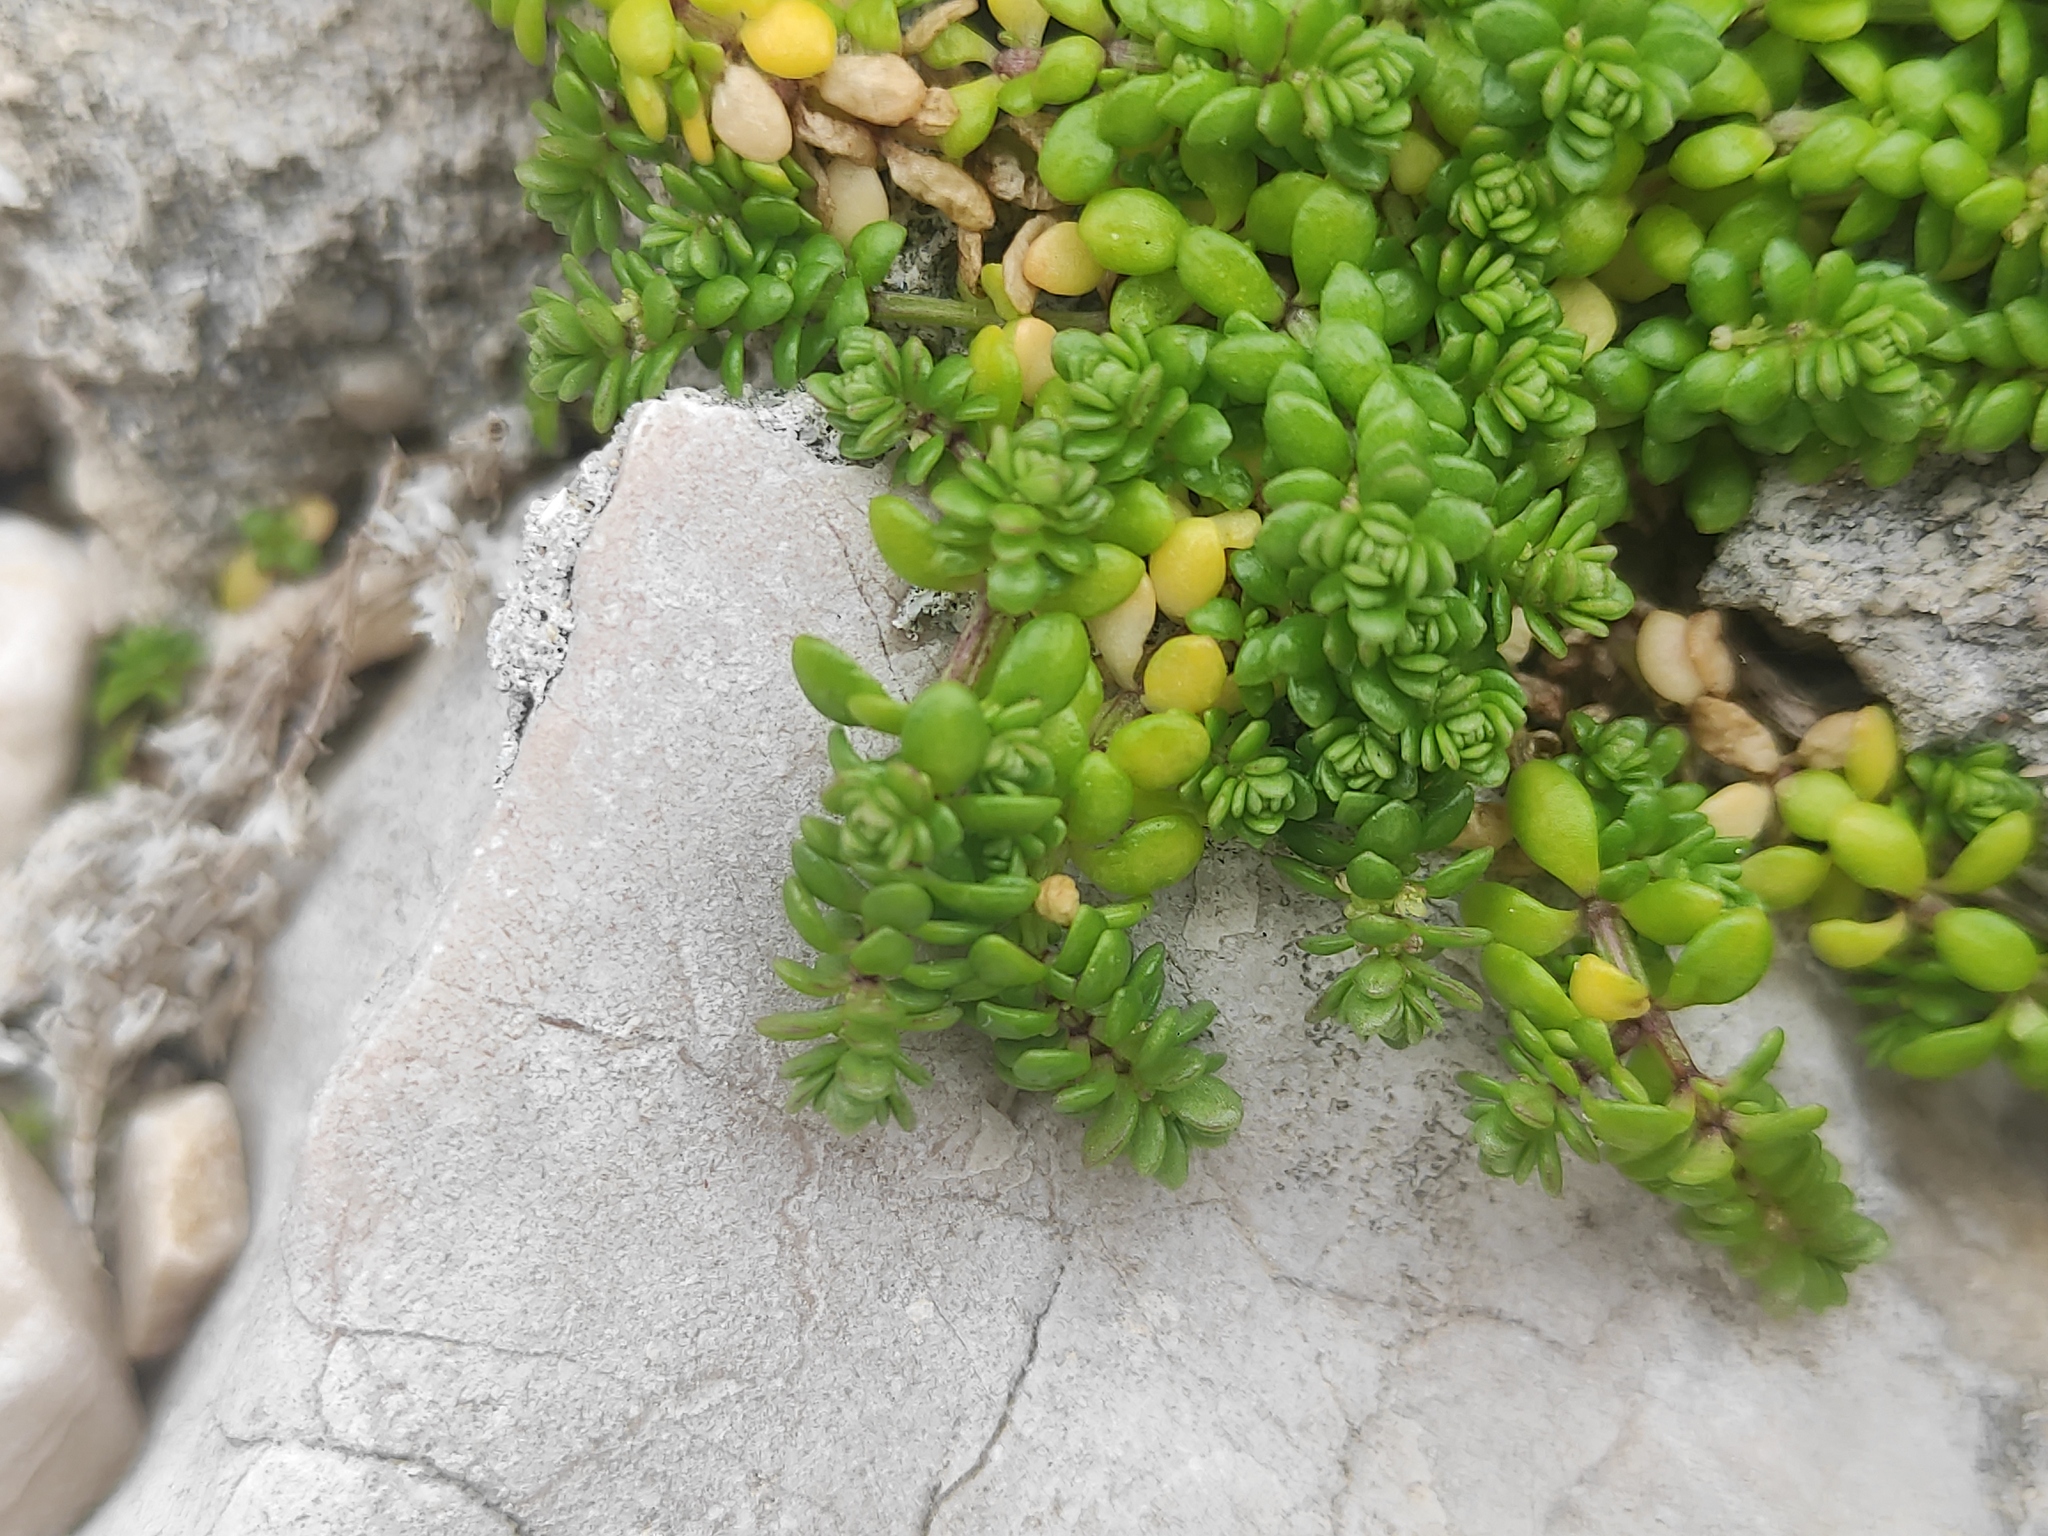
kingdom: Plantae
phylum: Tracheophyta
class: Magnoliopsida
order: Gentianales
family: Rubiaceae
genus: Valantia
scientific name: Valantia muralis
